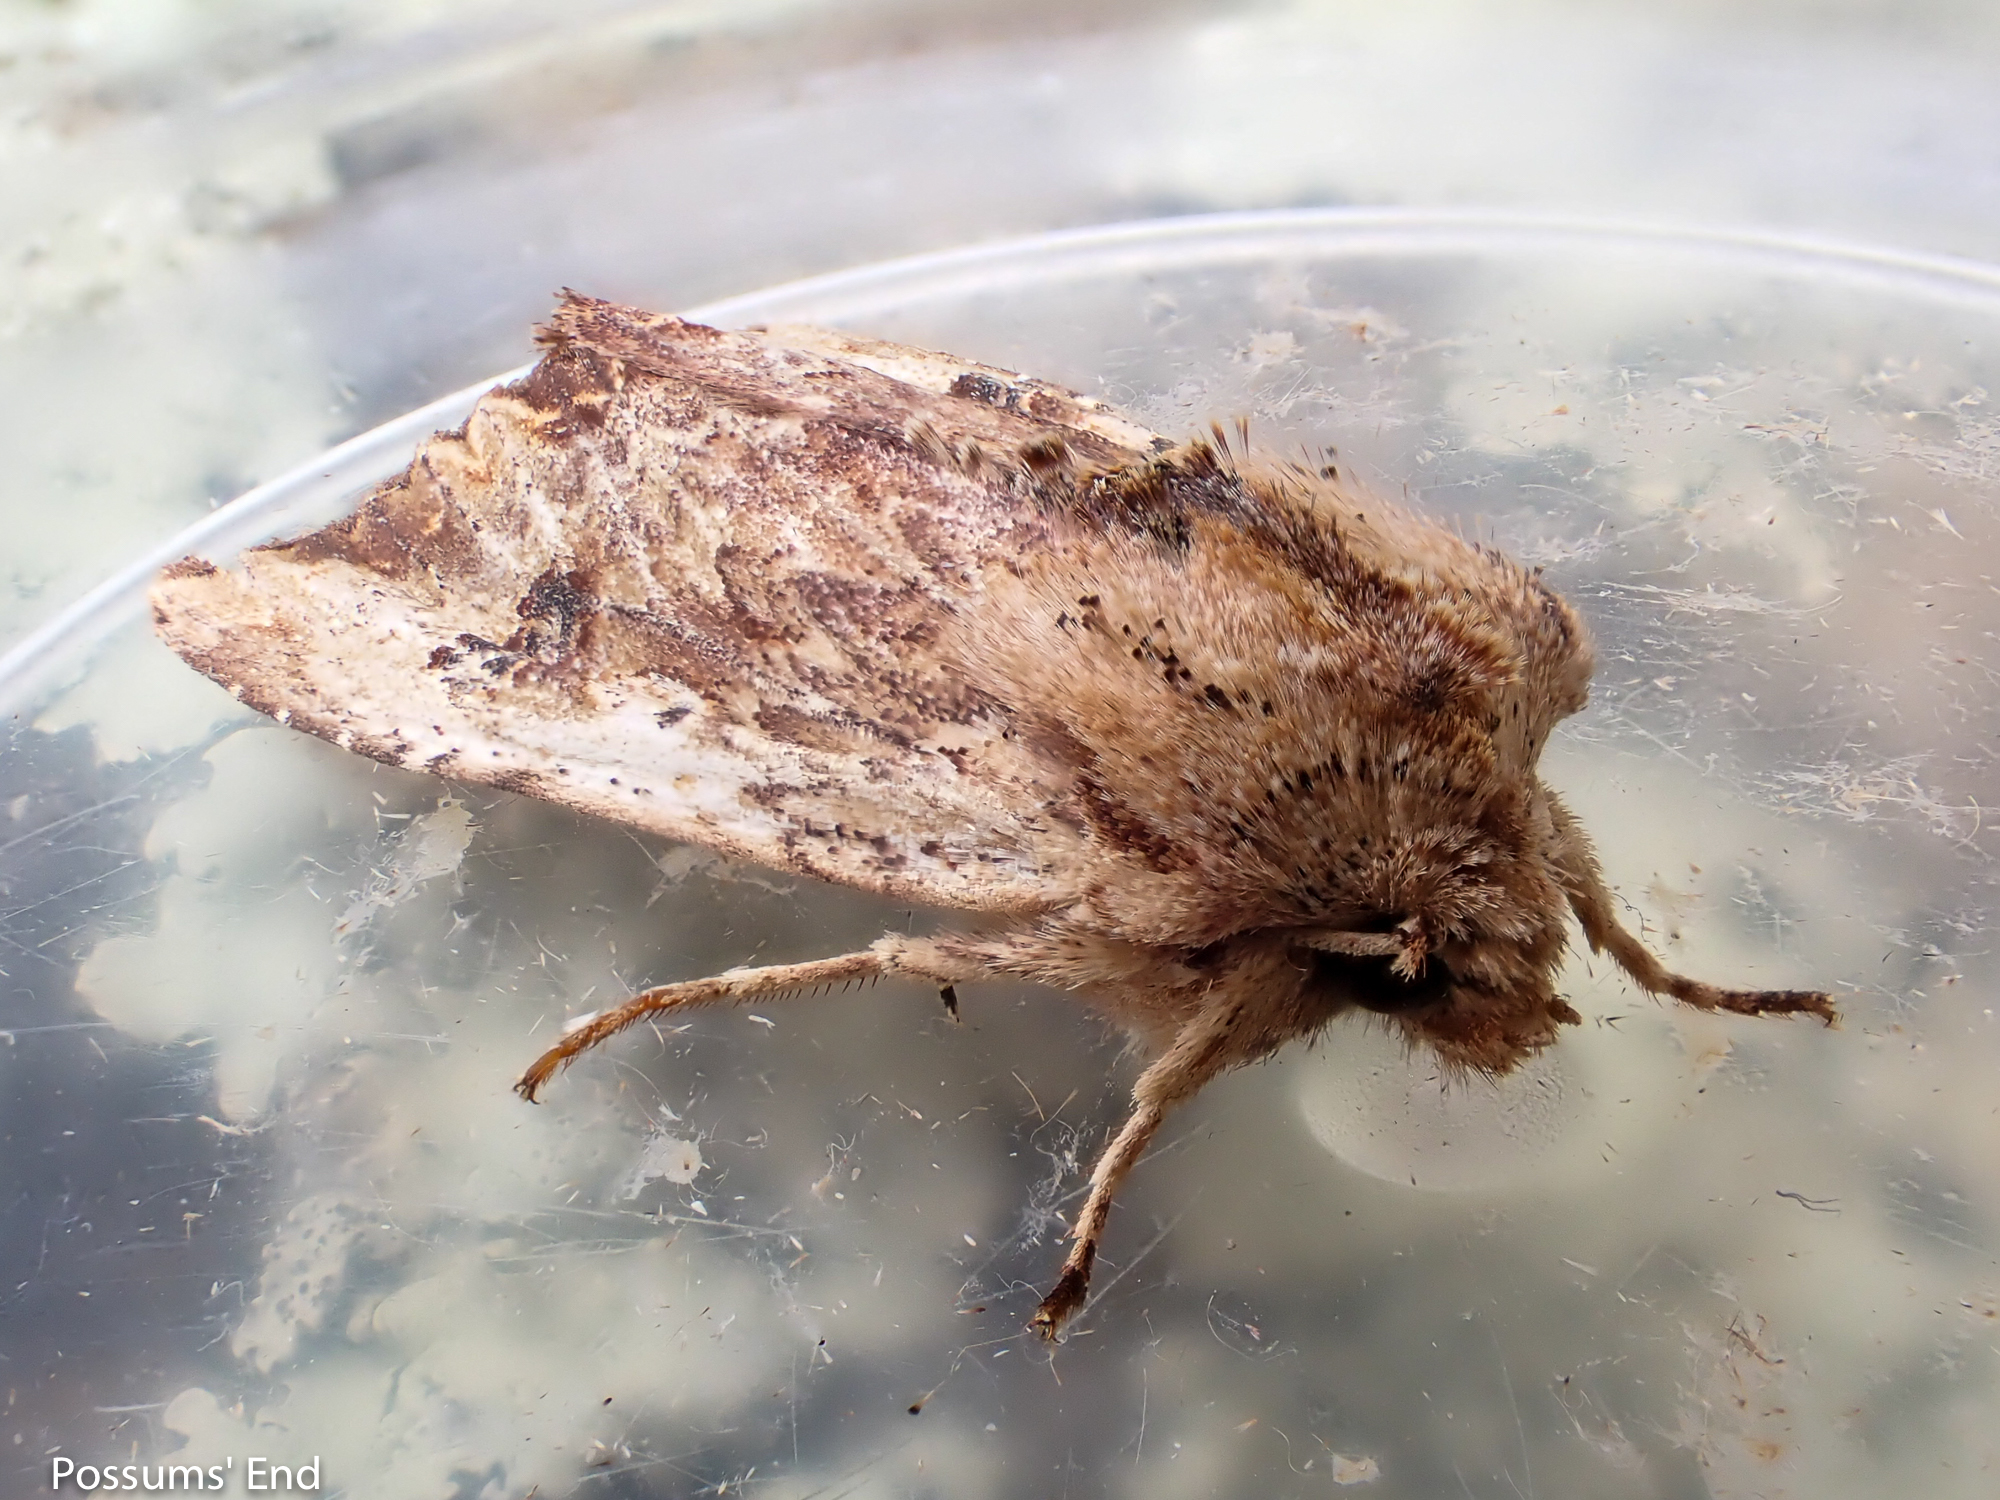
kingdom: Animalia
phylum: Arthropoda
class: Insecta
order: Lepidoptera
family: Noctuidae
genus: Ichneutica
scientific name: Ichneutica
